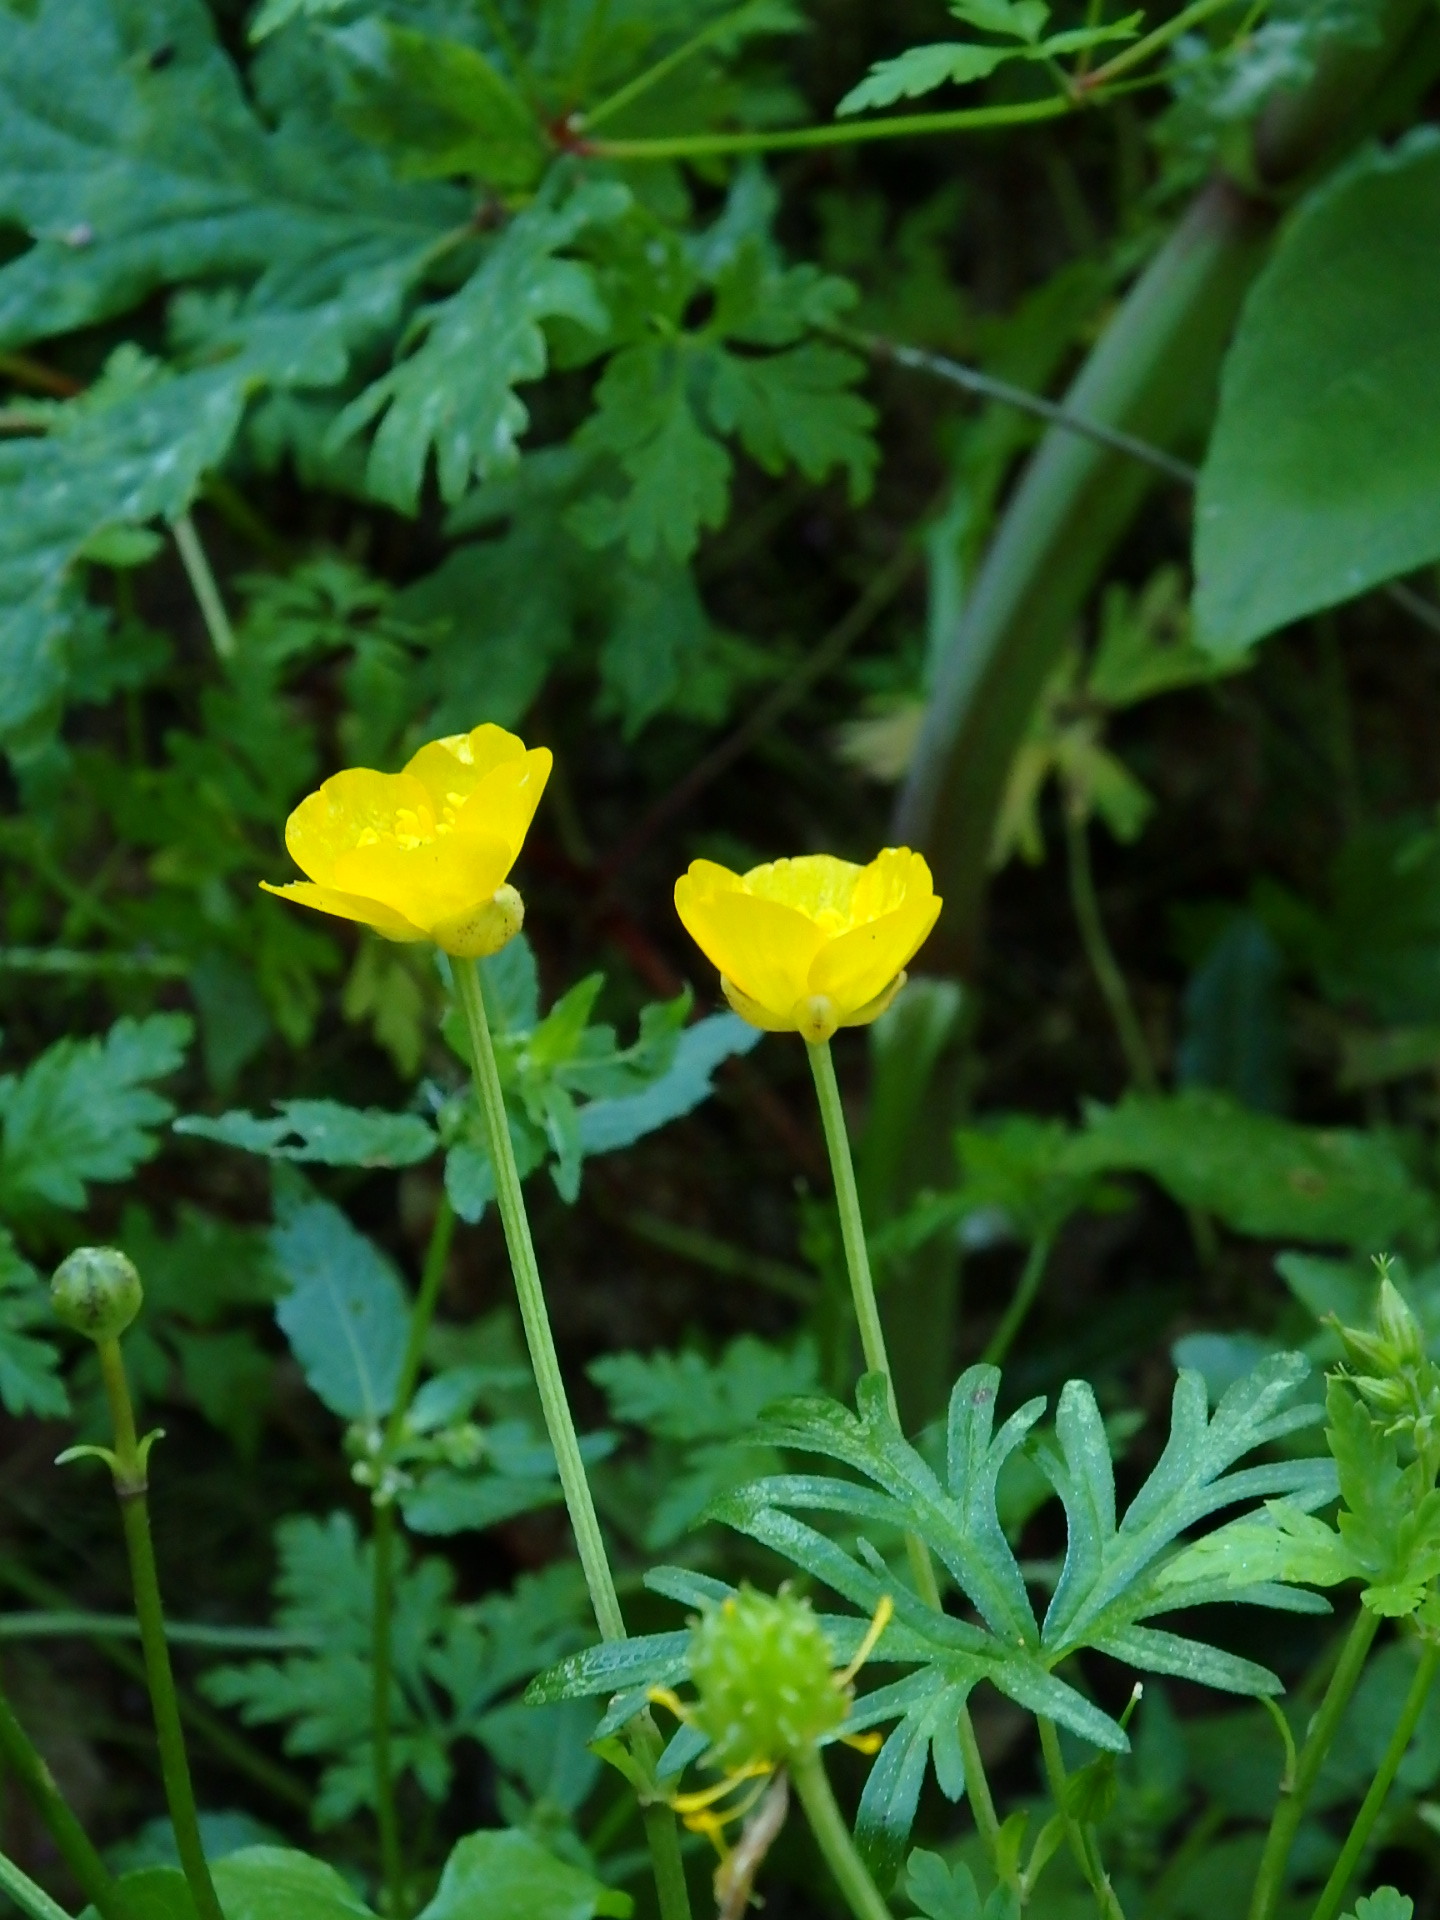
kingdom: Plantae
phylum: Tracheophyta
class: Magnoliopsida
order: Ranunculales
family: Ranunculaceae
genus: Ranunculus
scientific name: Ranunculus repens
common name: Creeping buttercup
